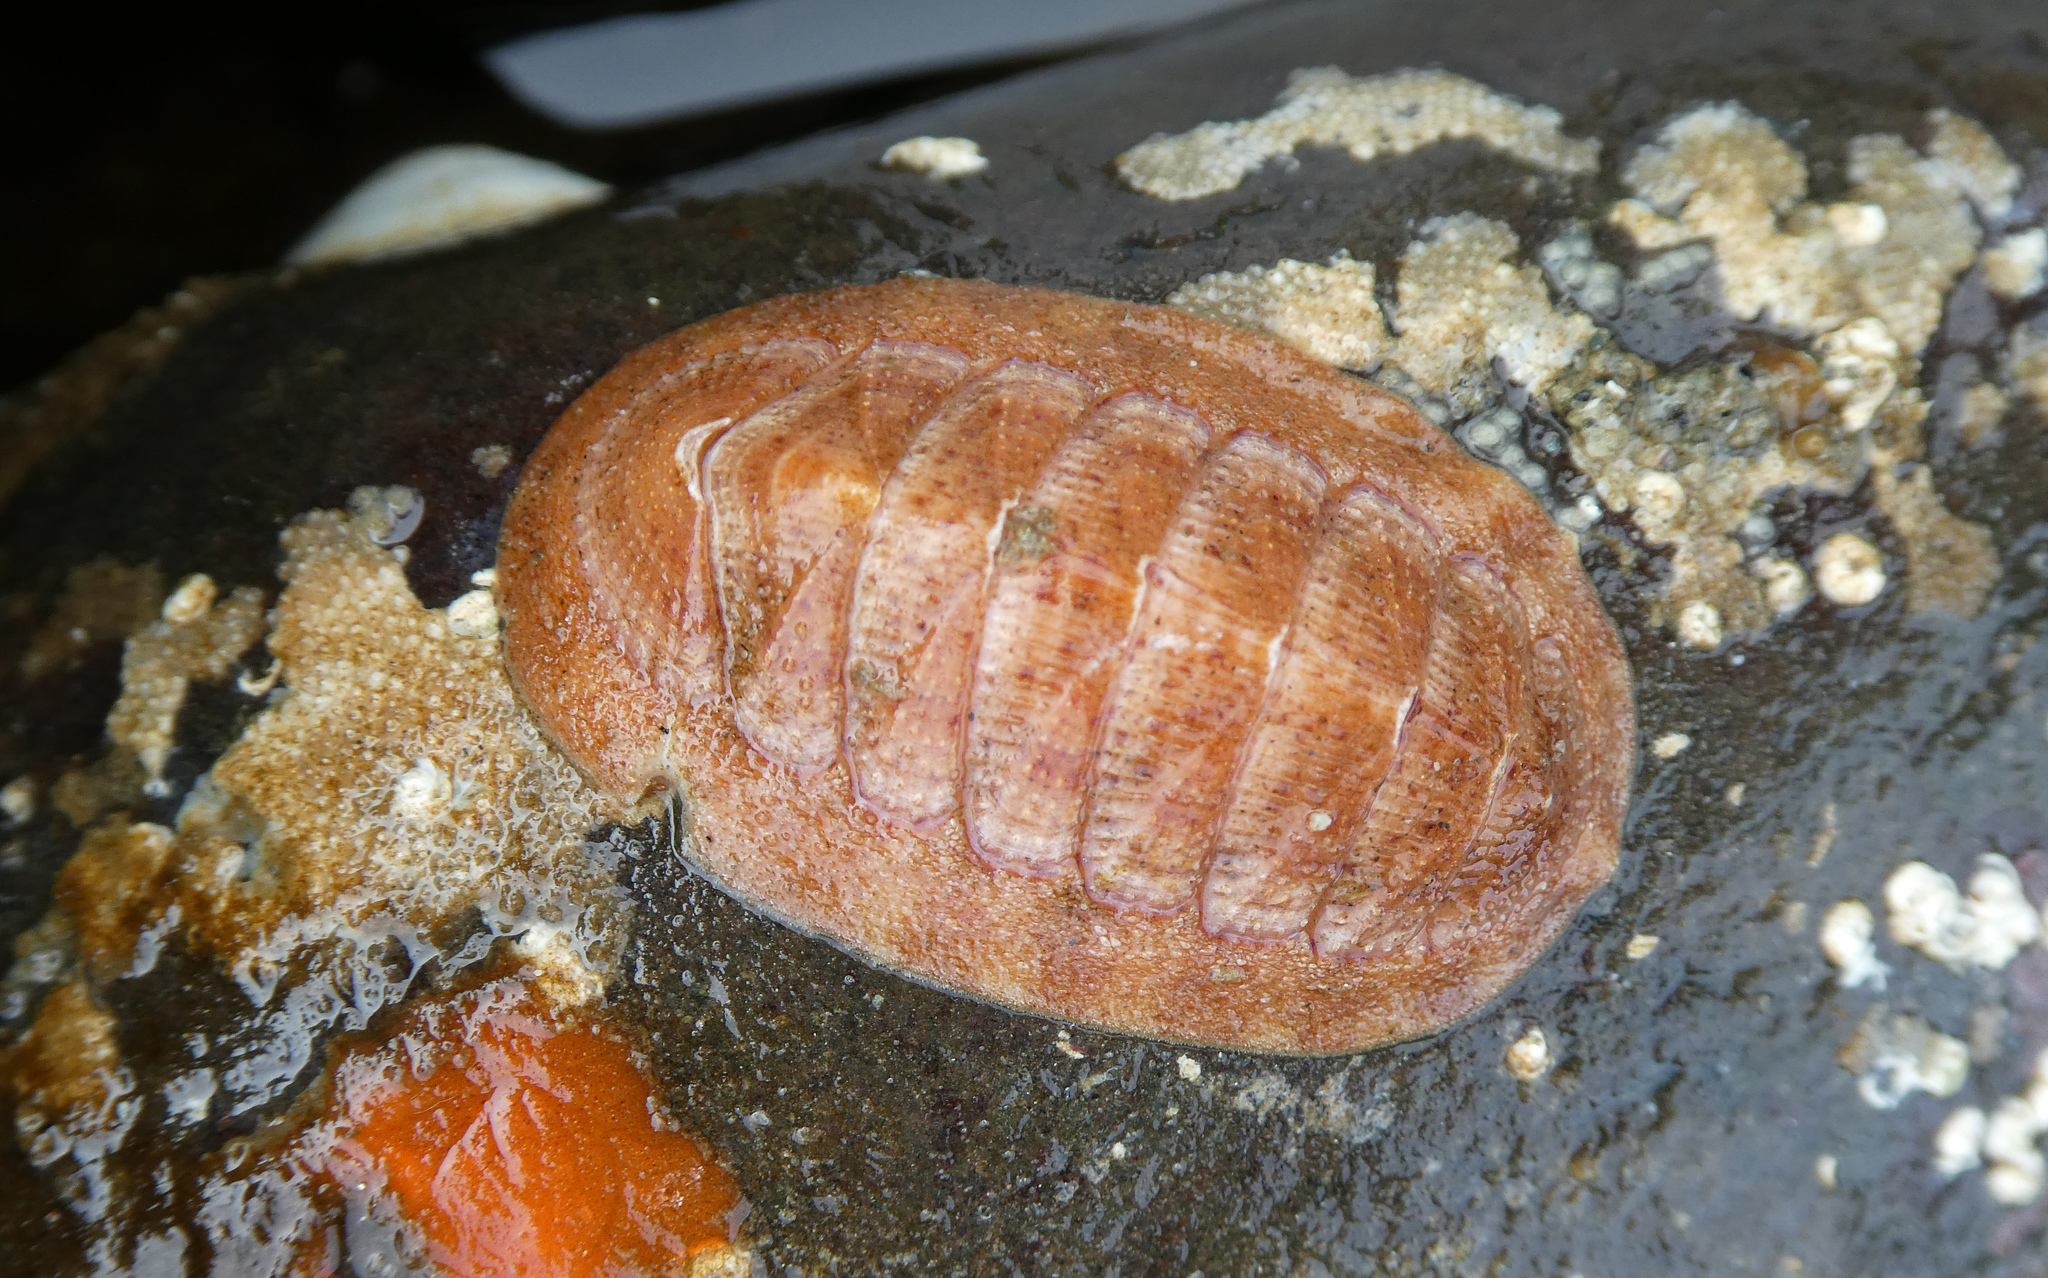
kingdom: Animalia
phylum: Mollusca
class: Polyplacophora
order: Chitonida
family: Ischnochitonidae
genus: Lepidozona
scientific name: Lepidozona mertensii
